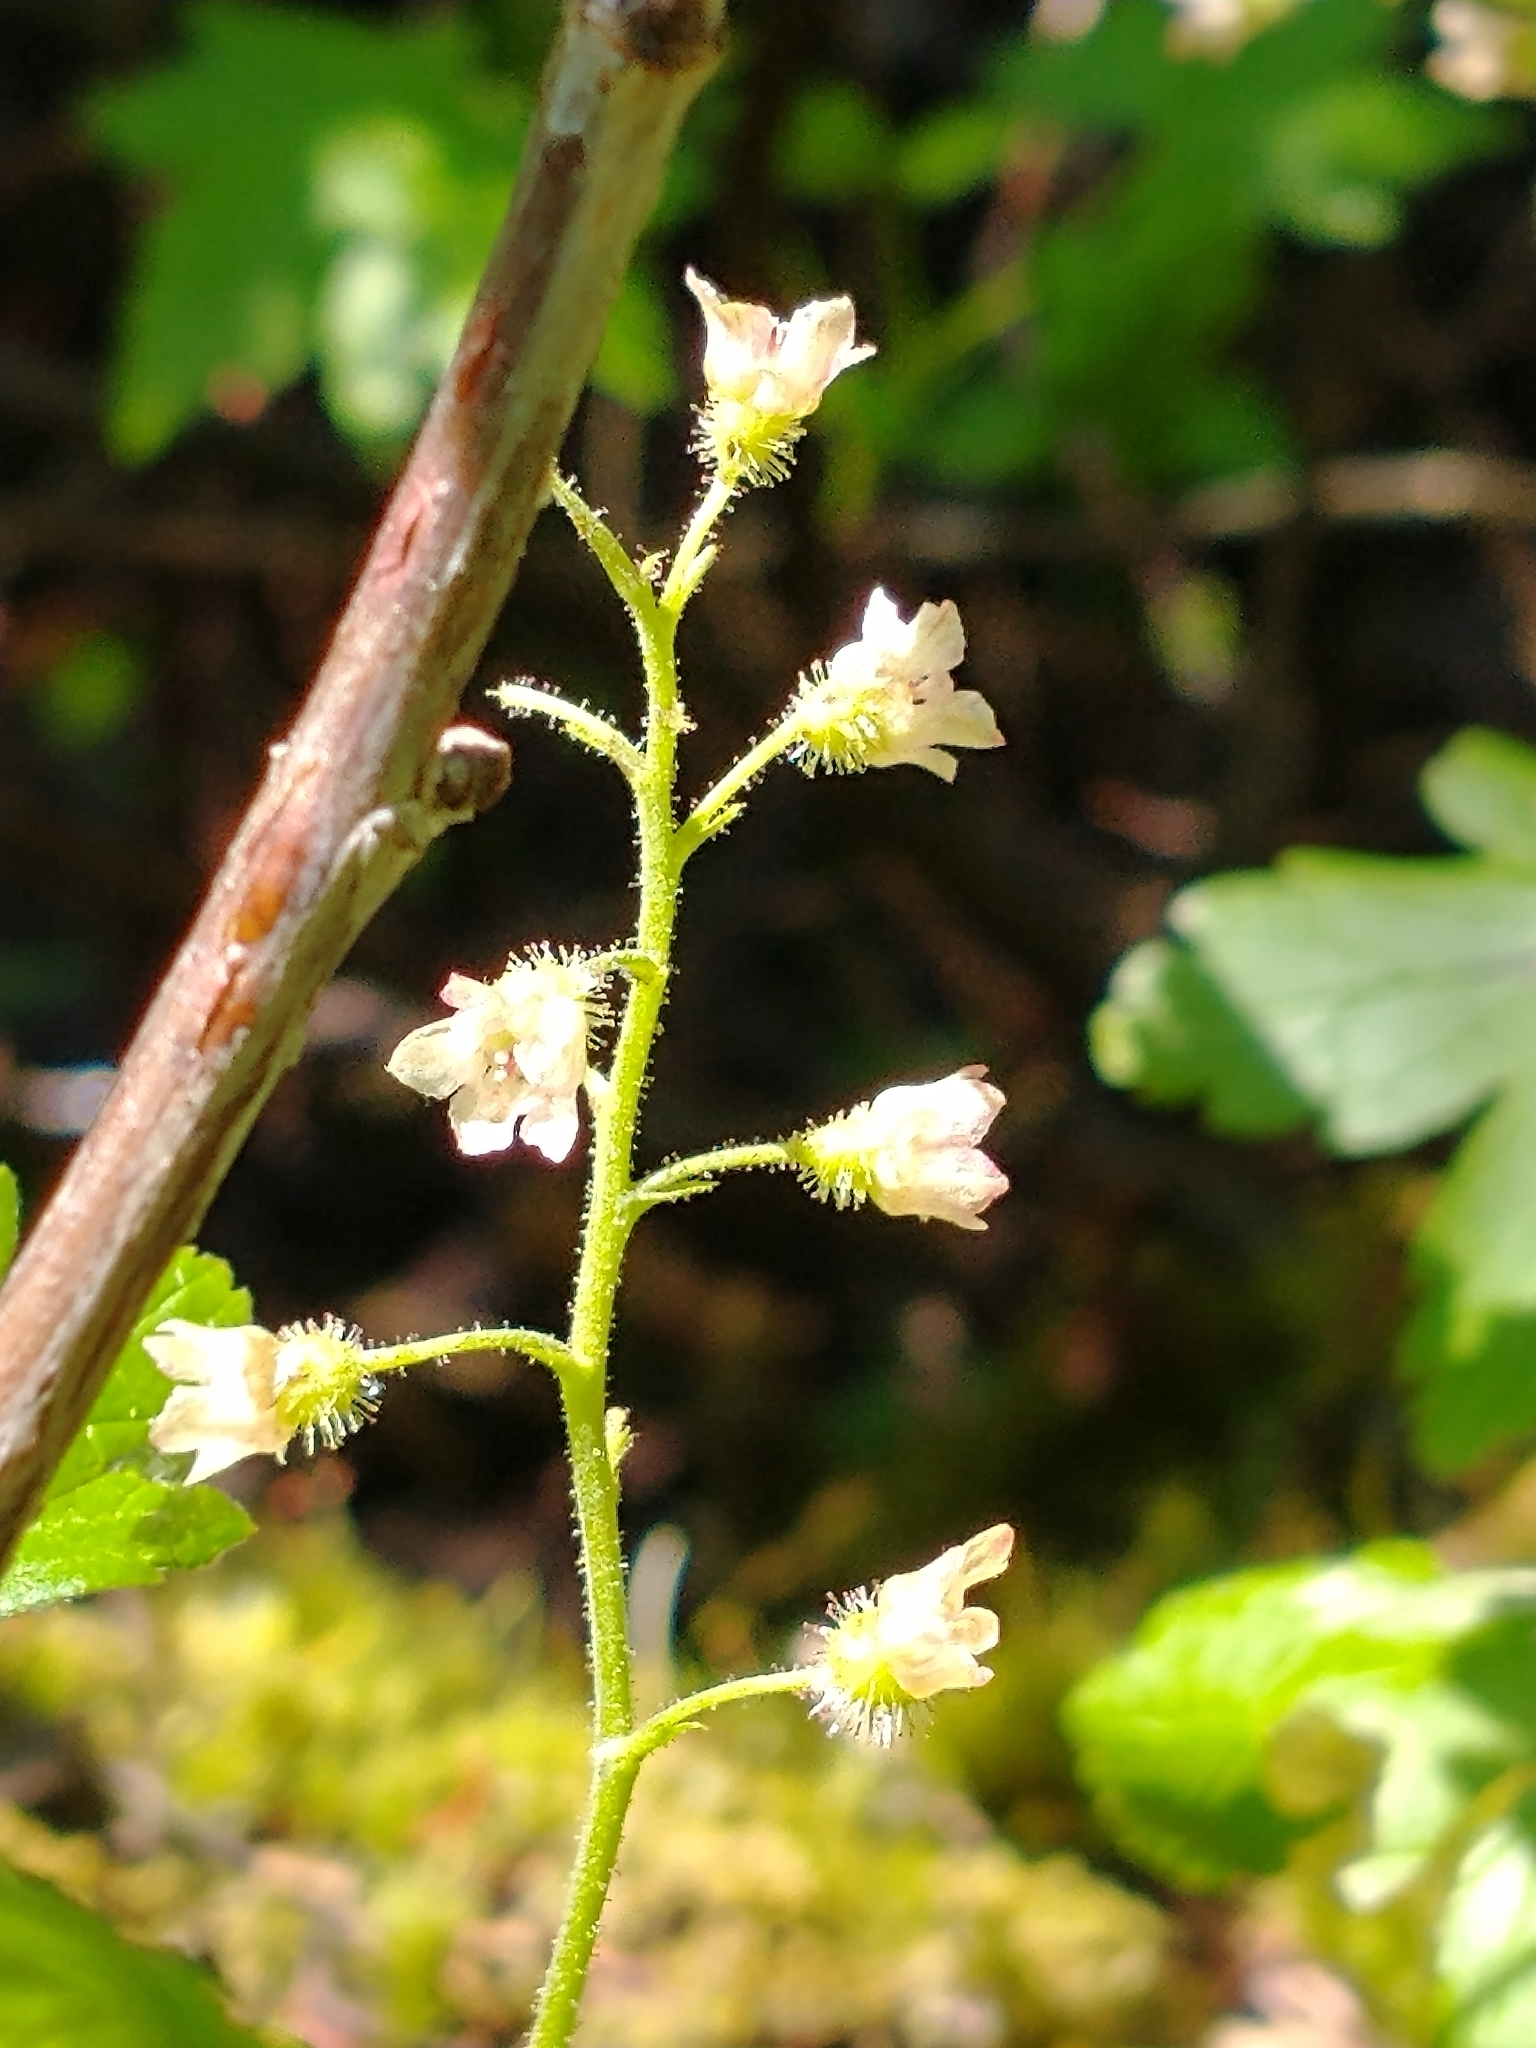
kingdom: Plantae
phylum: Tracheophyta
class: Magnoliopsida
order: Saxifragales
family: Grossulariaceae
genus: Ribes
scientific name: Ribes glandulosum
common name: Skunk currant
